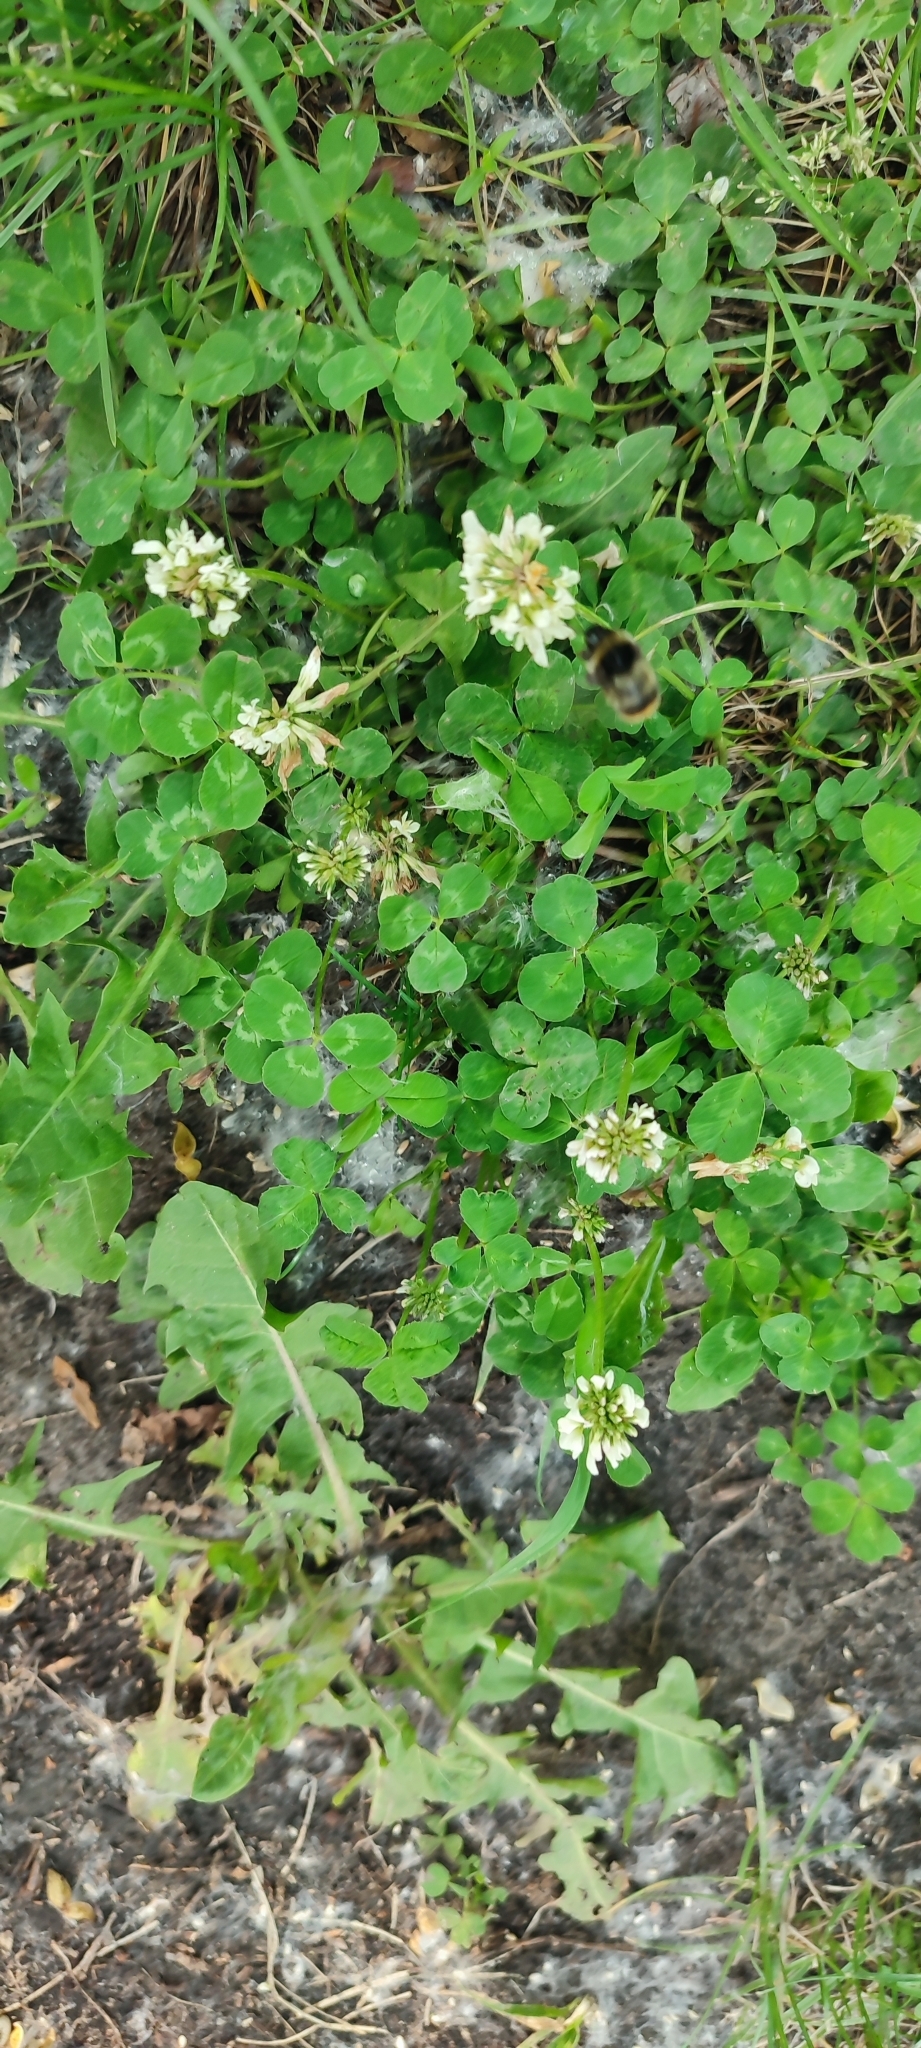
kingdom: Plantae
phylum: Tracheophyta
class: Magnoliopsida
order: Fabales
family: Fabaceae
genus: Trifolium
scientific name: Trifolium repens
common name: White clover
